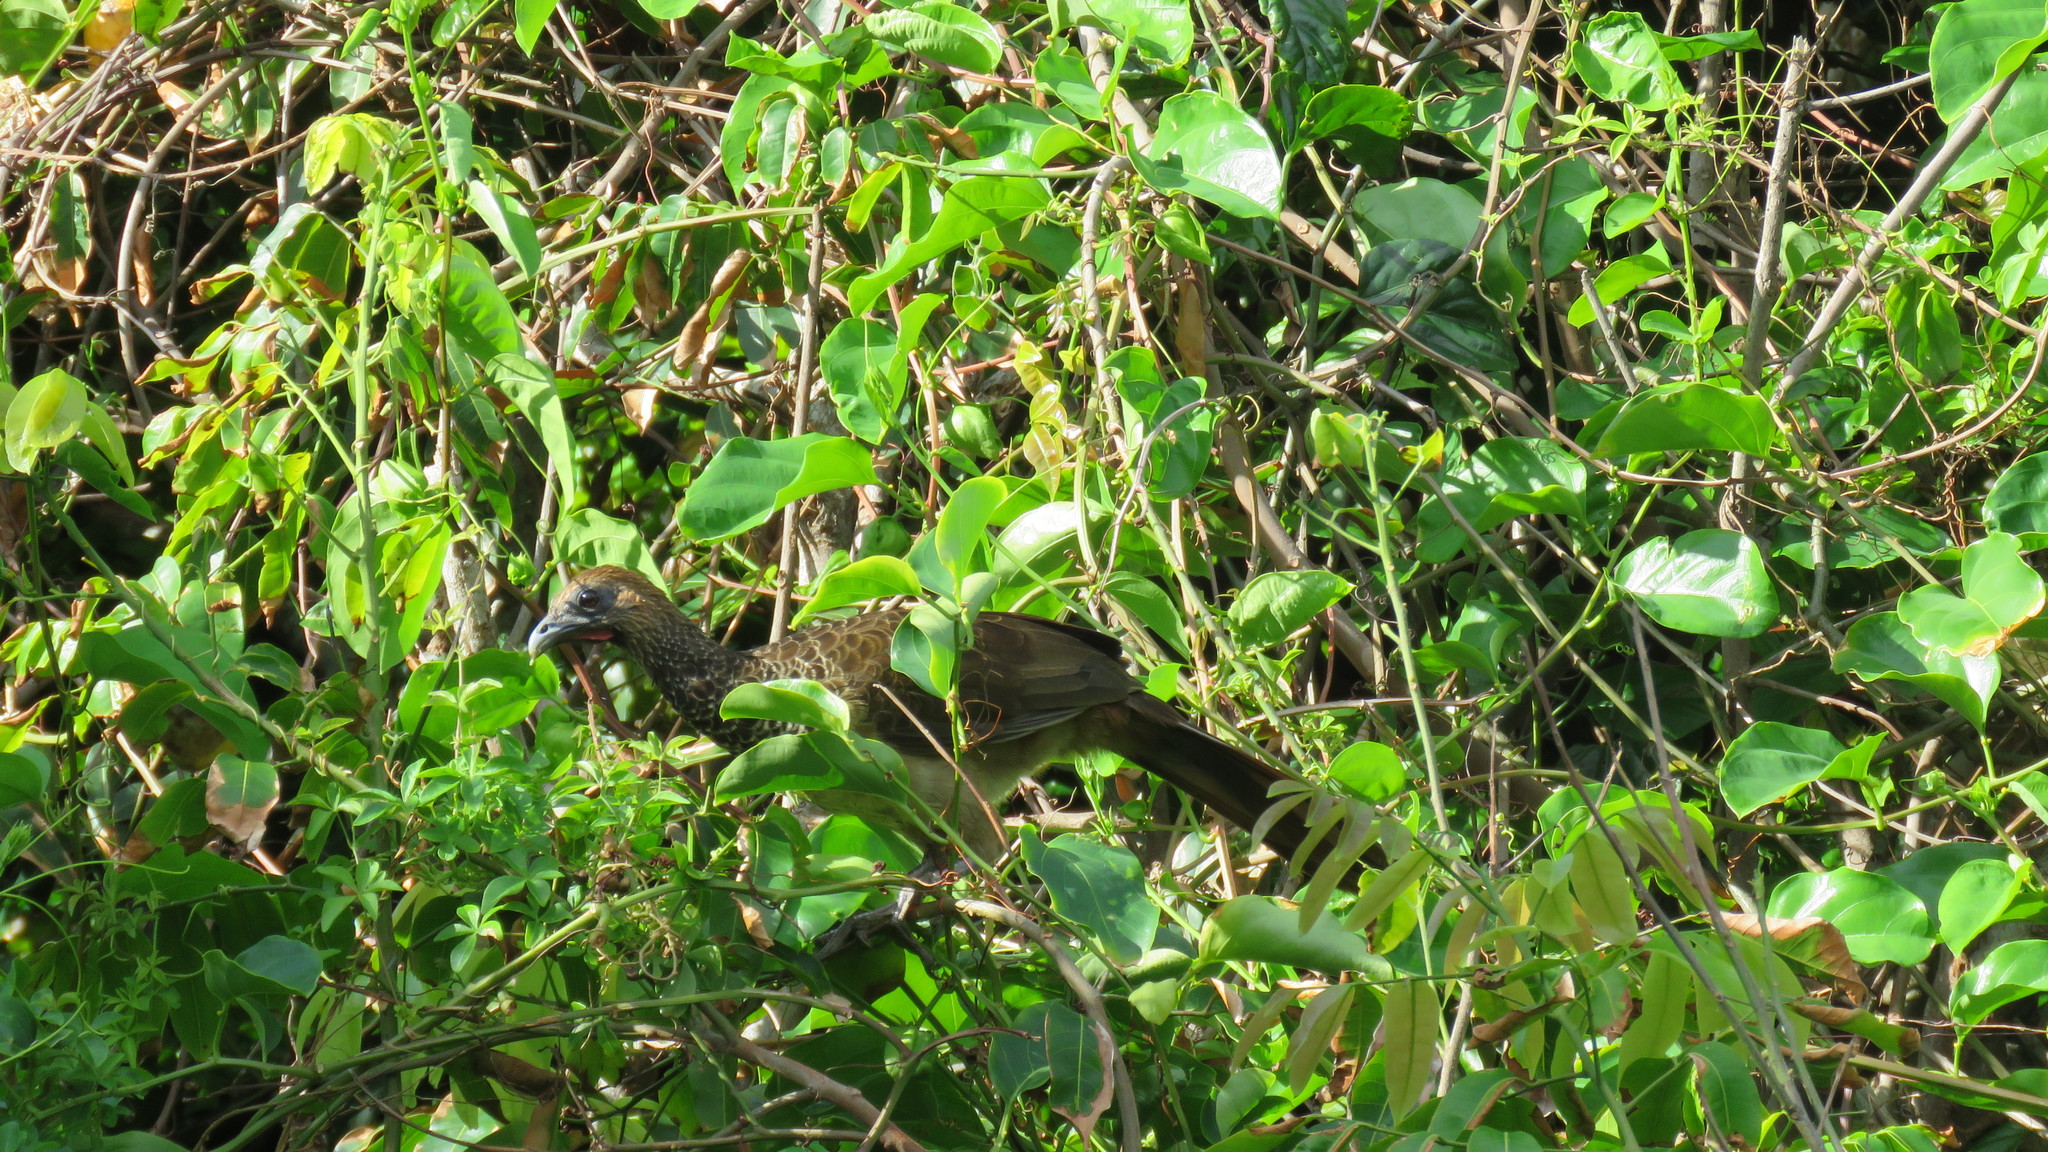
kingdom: Animalia
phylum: Chordata
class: Aves
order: Galliformes
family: Cracidae
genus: Ortalis
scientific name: Ortalis araucuan
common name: East brazilian chachalaca
